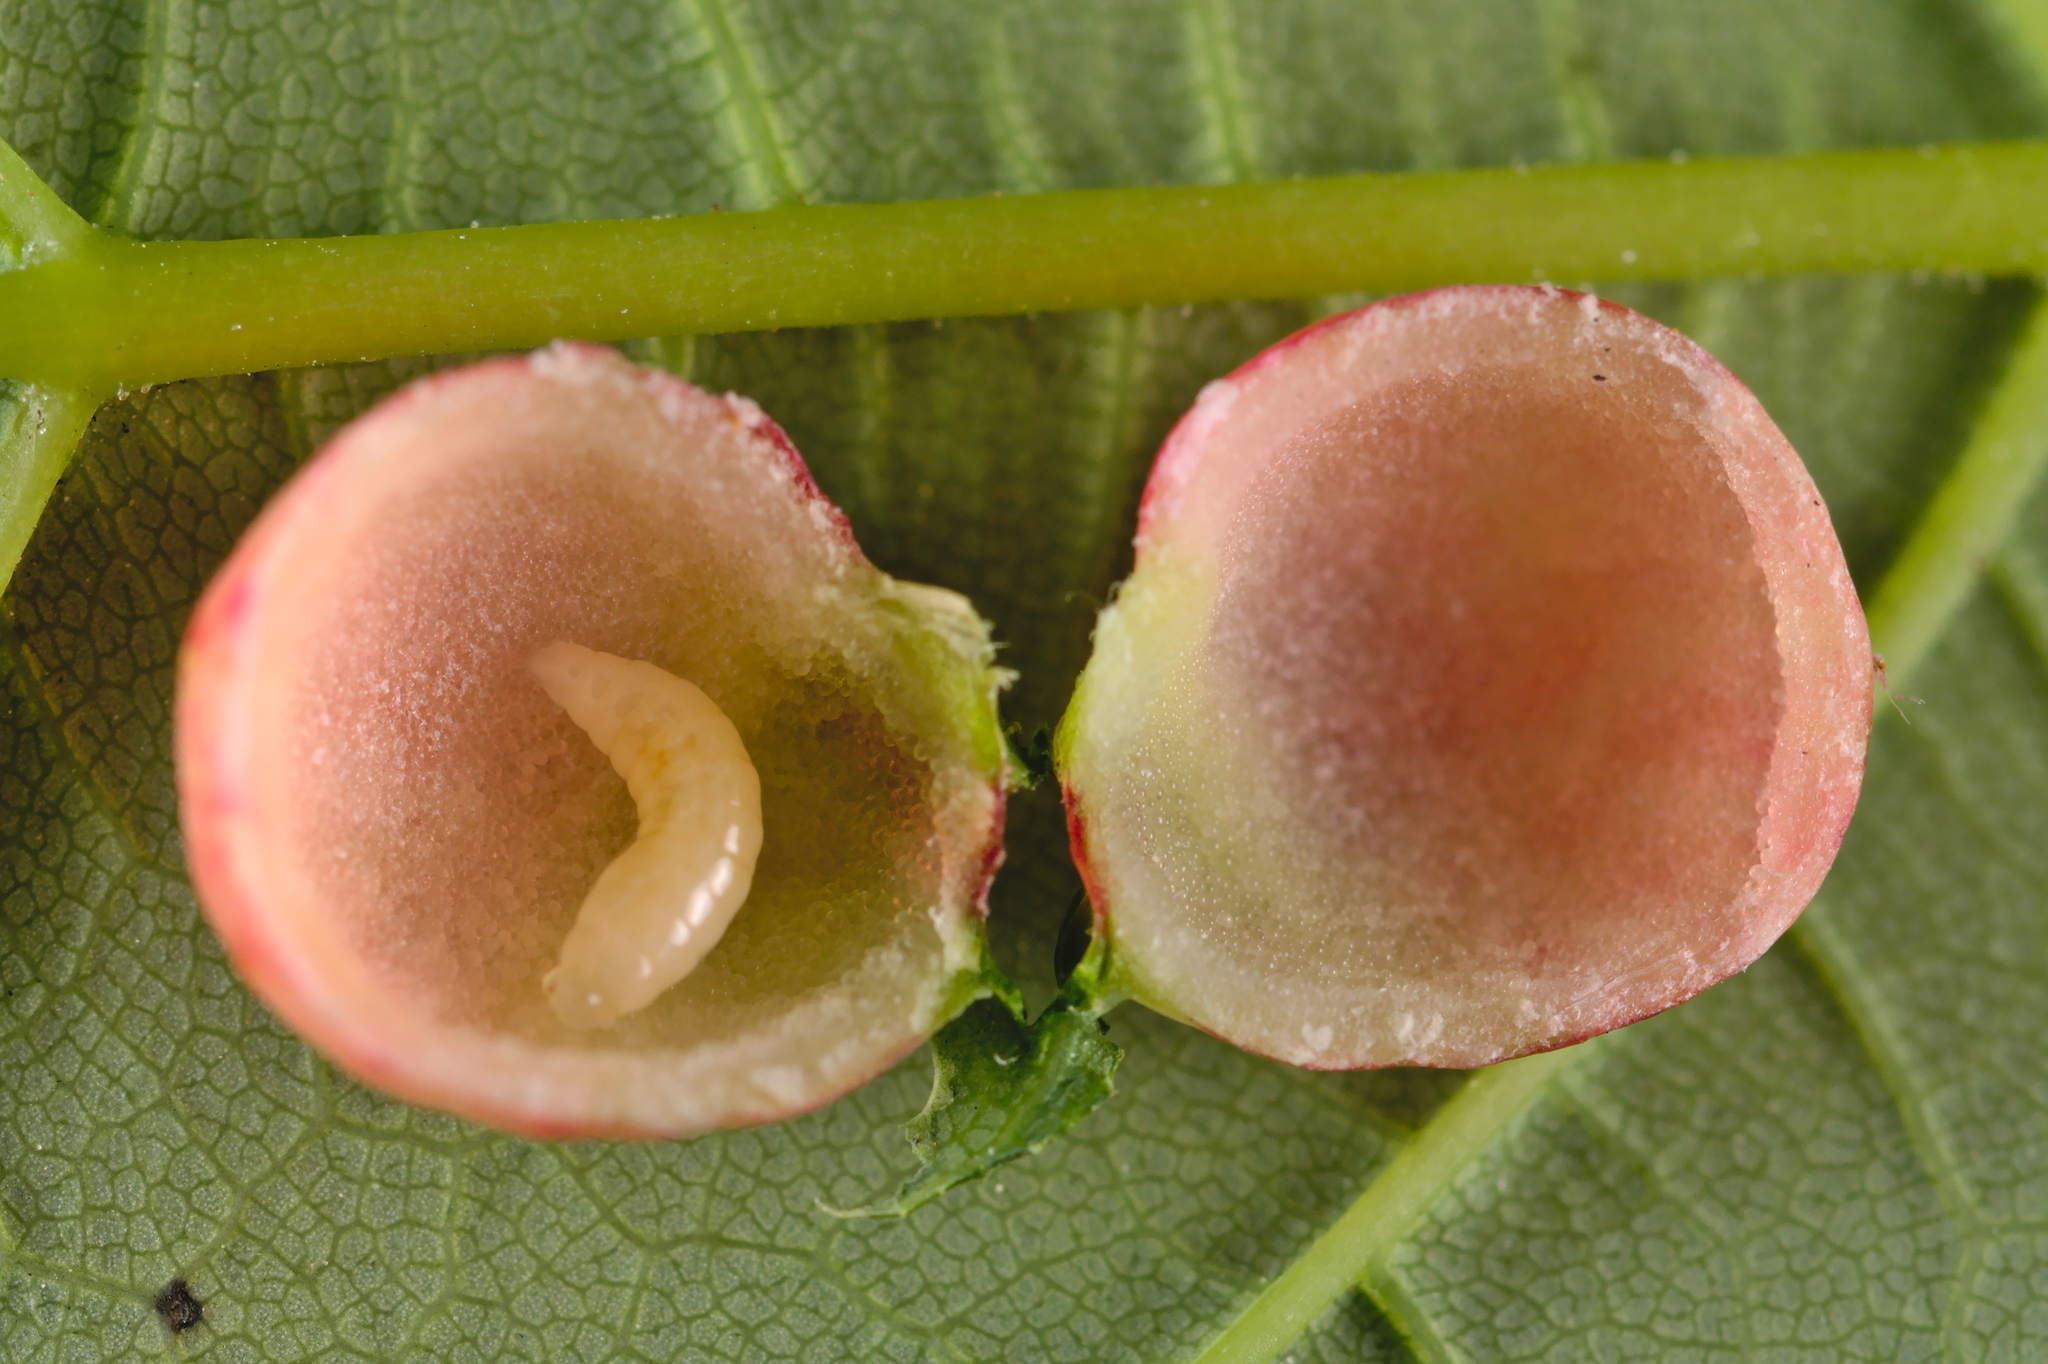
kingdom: Animalia
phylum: Arthropoda
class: Insecta
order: Hymenoptera
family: Cynipidae
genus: Pediaspis
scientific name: Pediaspis aceris
